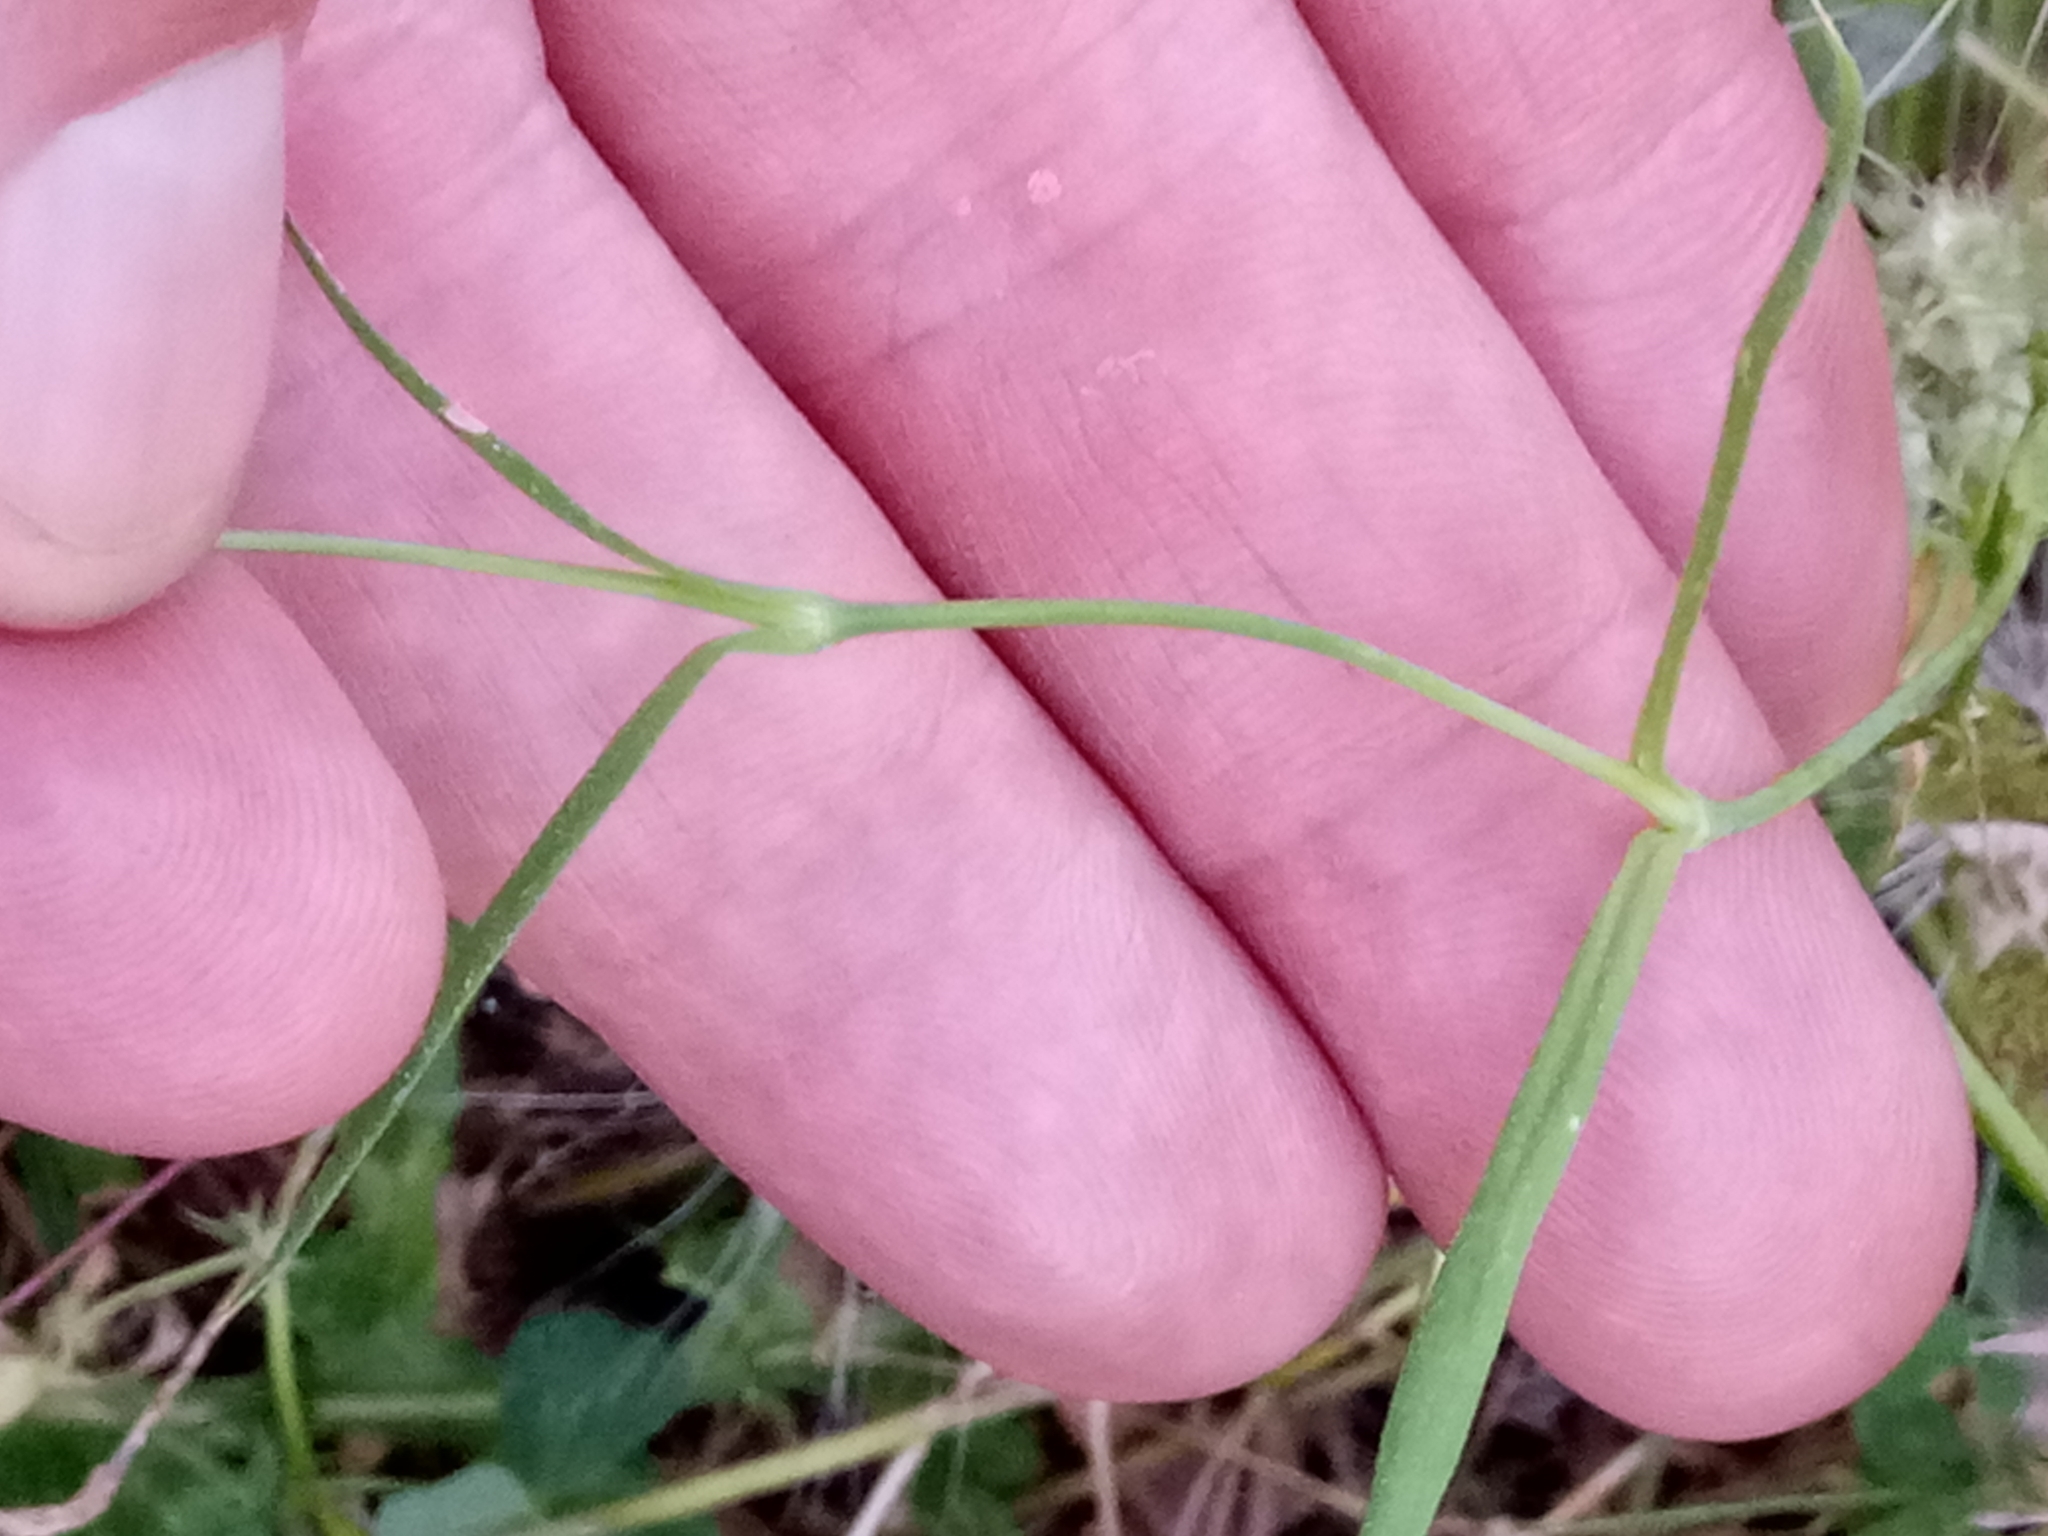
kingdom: Plantae
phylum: Tracheophyta
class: Magnoliopsida
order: Caryophyllales
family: Caryophyllaceae
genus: Eudianthe
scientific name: Eudianthe coeli-rosa
